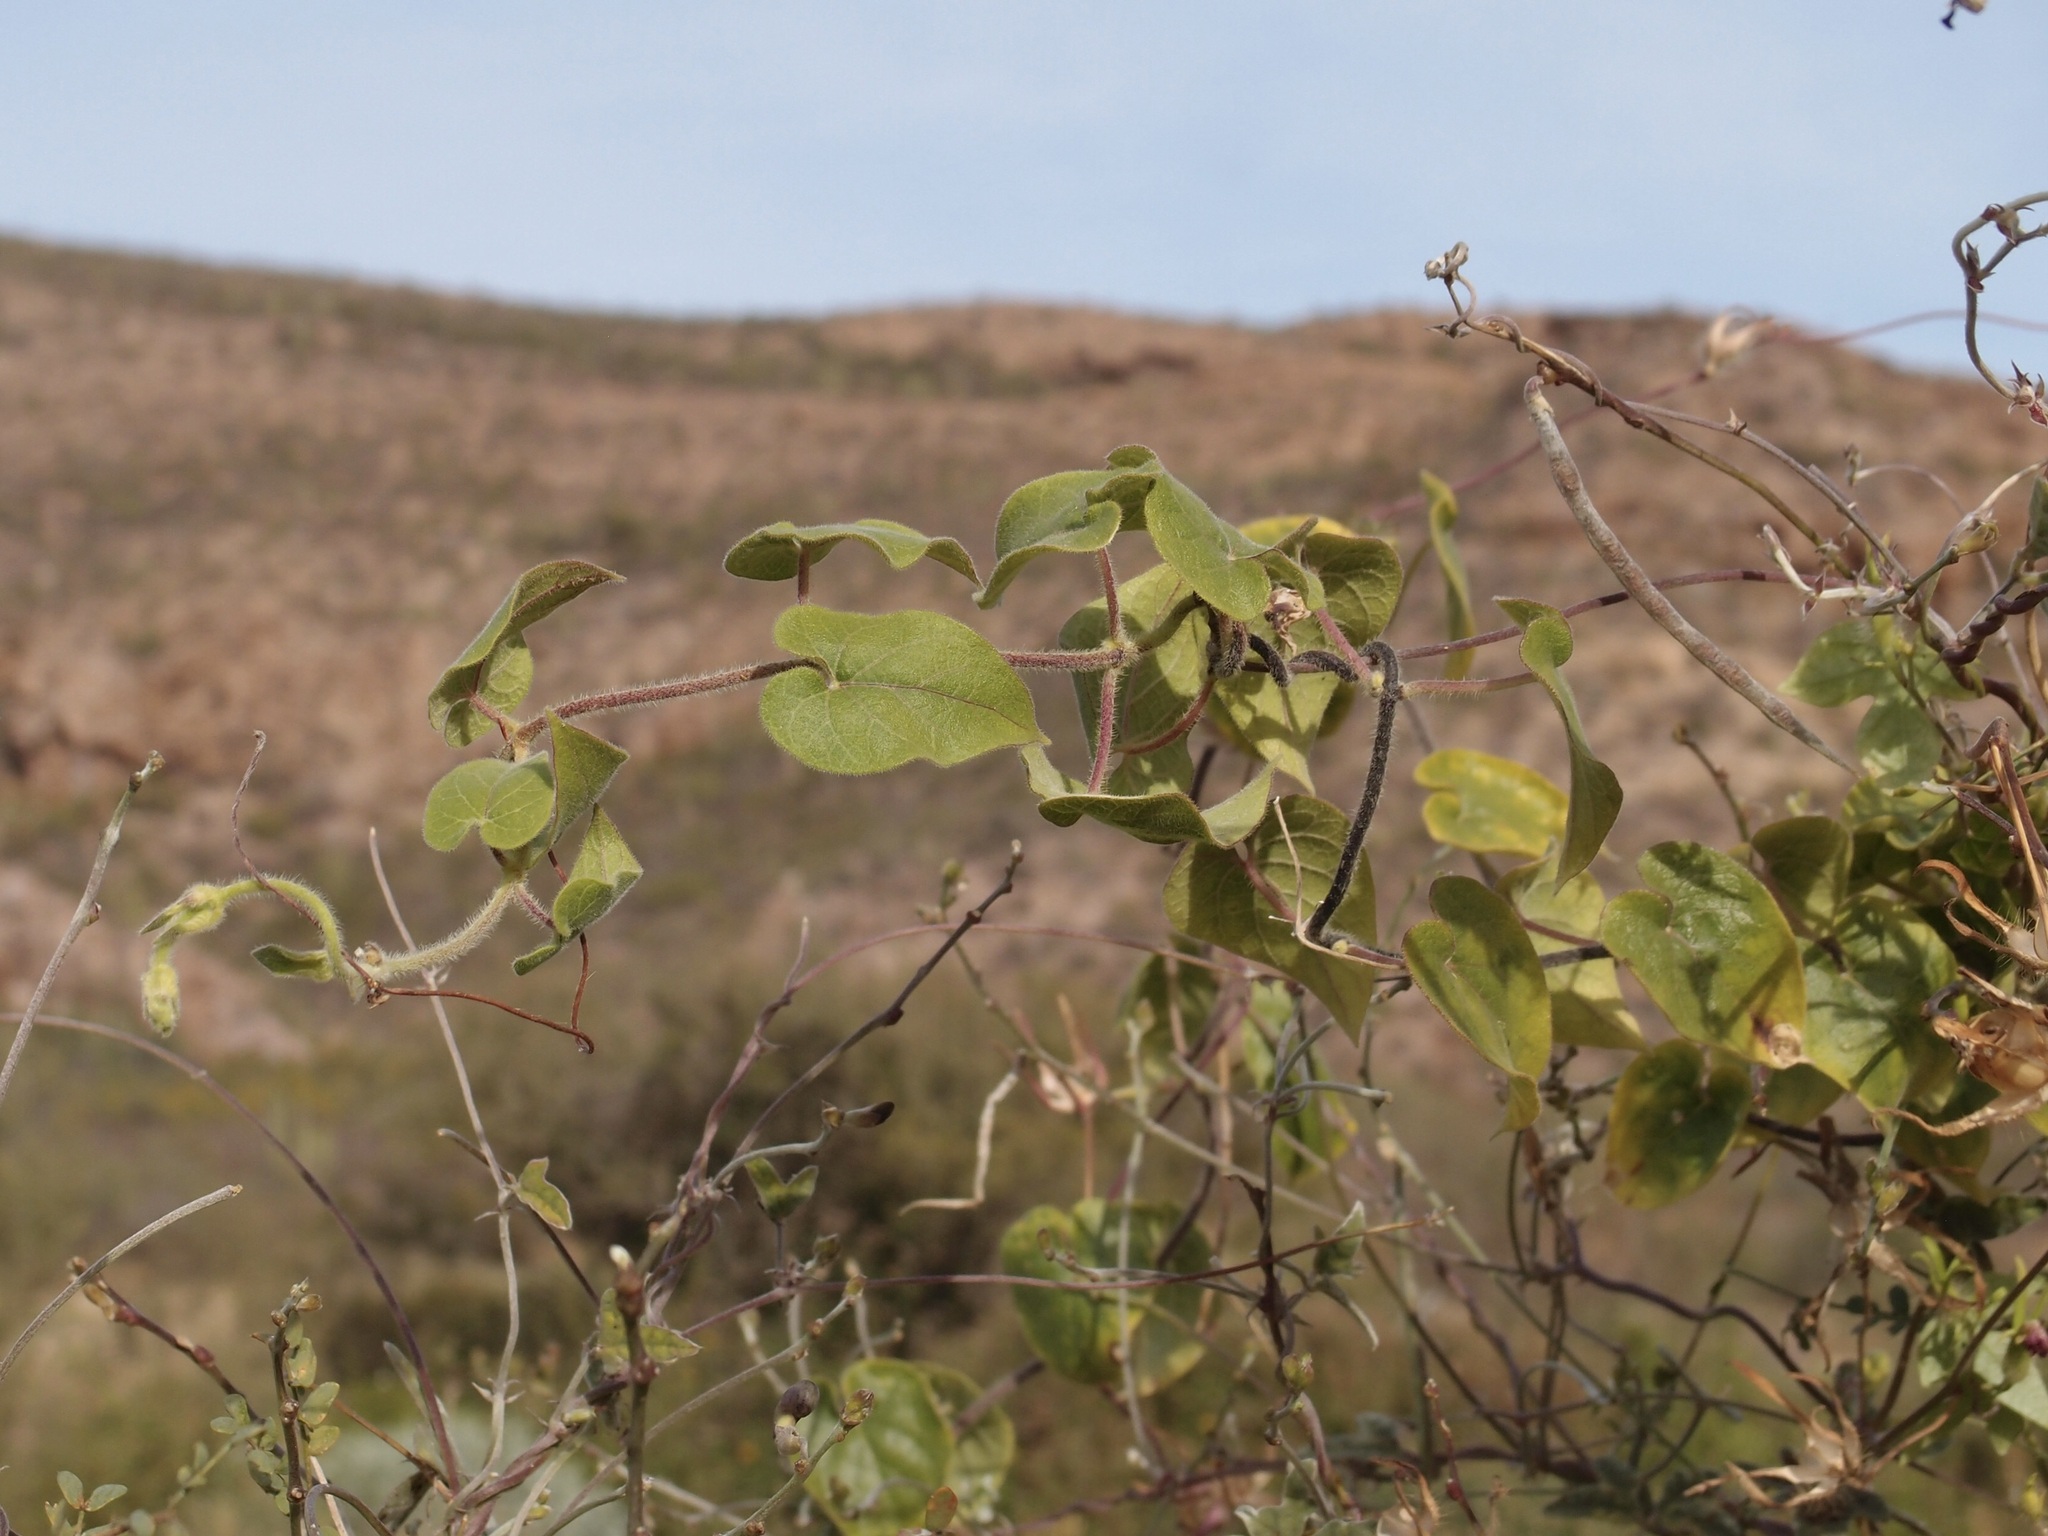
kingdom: Plantae
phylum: Tracheophyta
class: Magnoliopsida
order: Gentianales
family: Apocynaceae
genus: Polystemma
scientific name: Polystemma cordifolium
